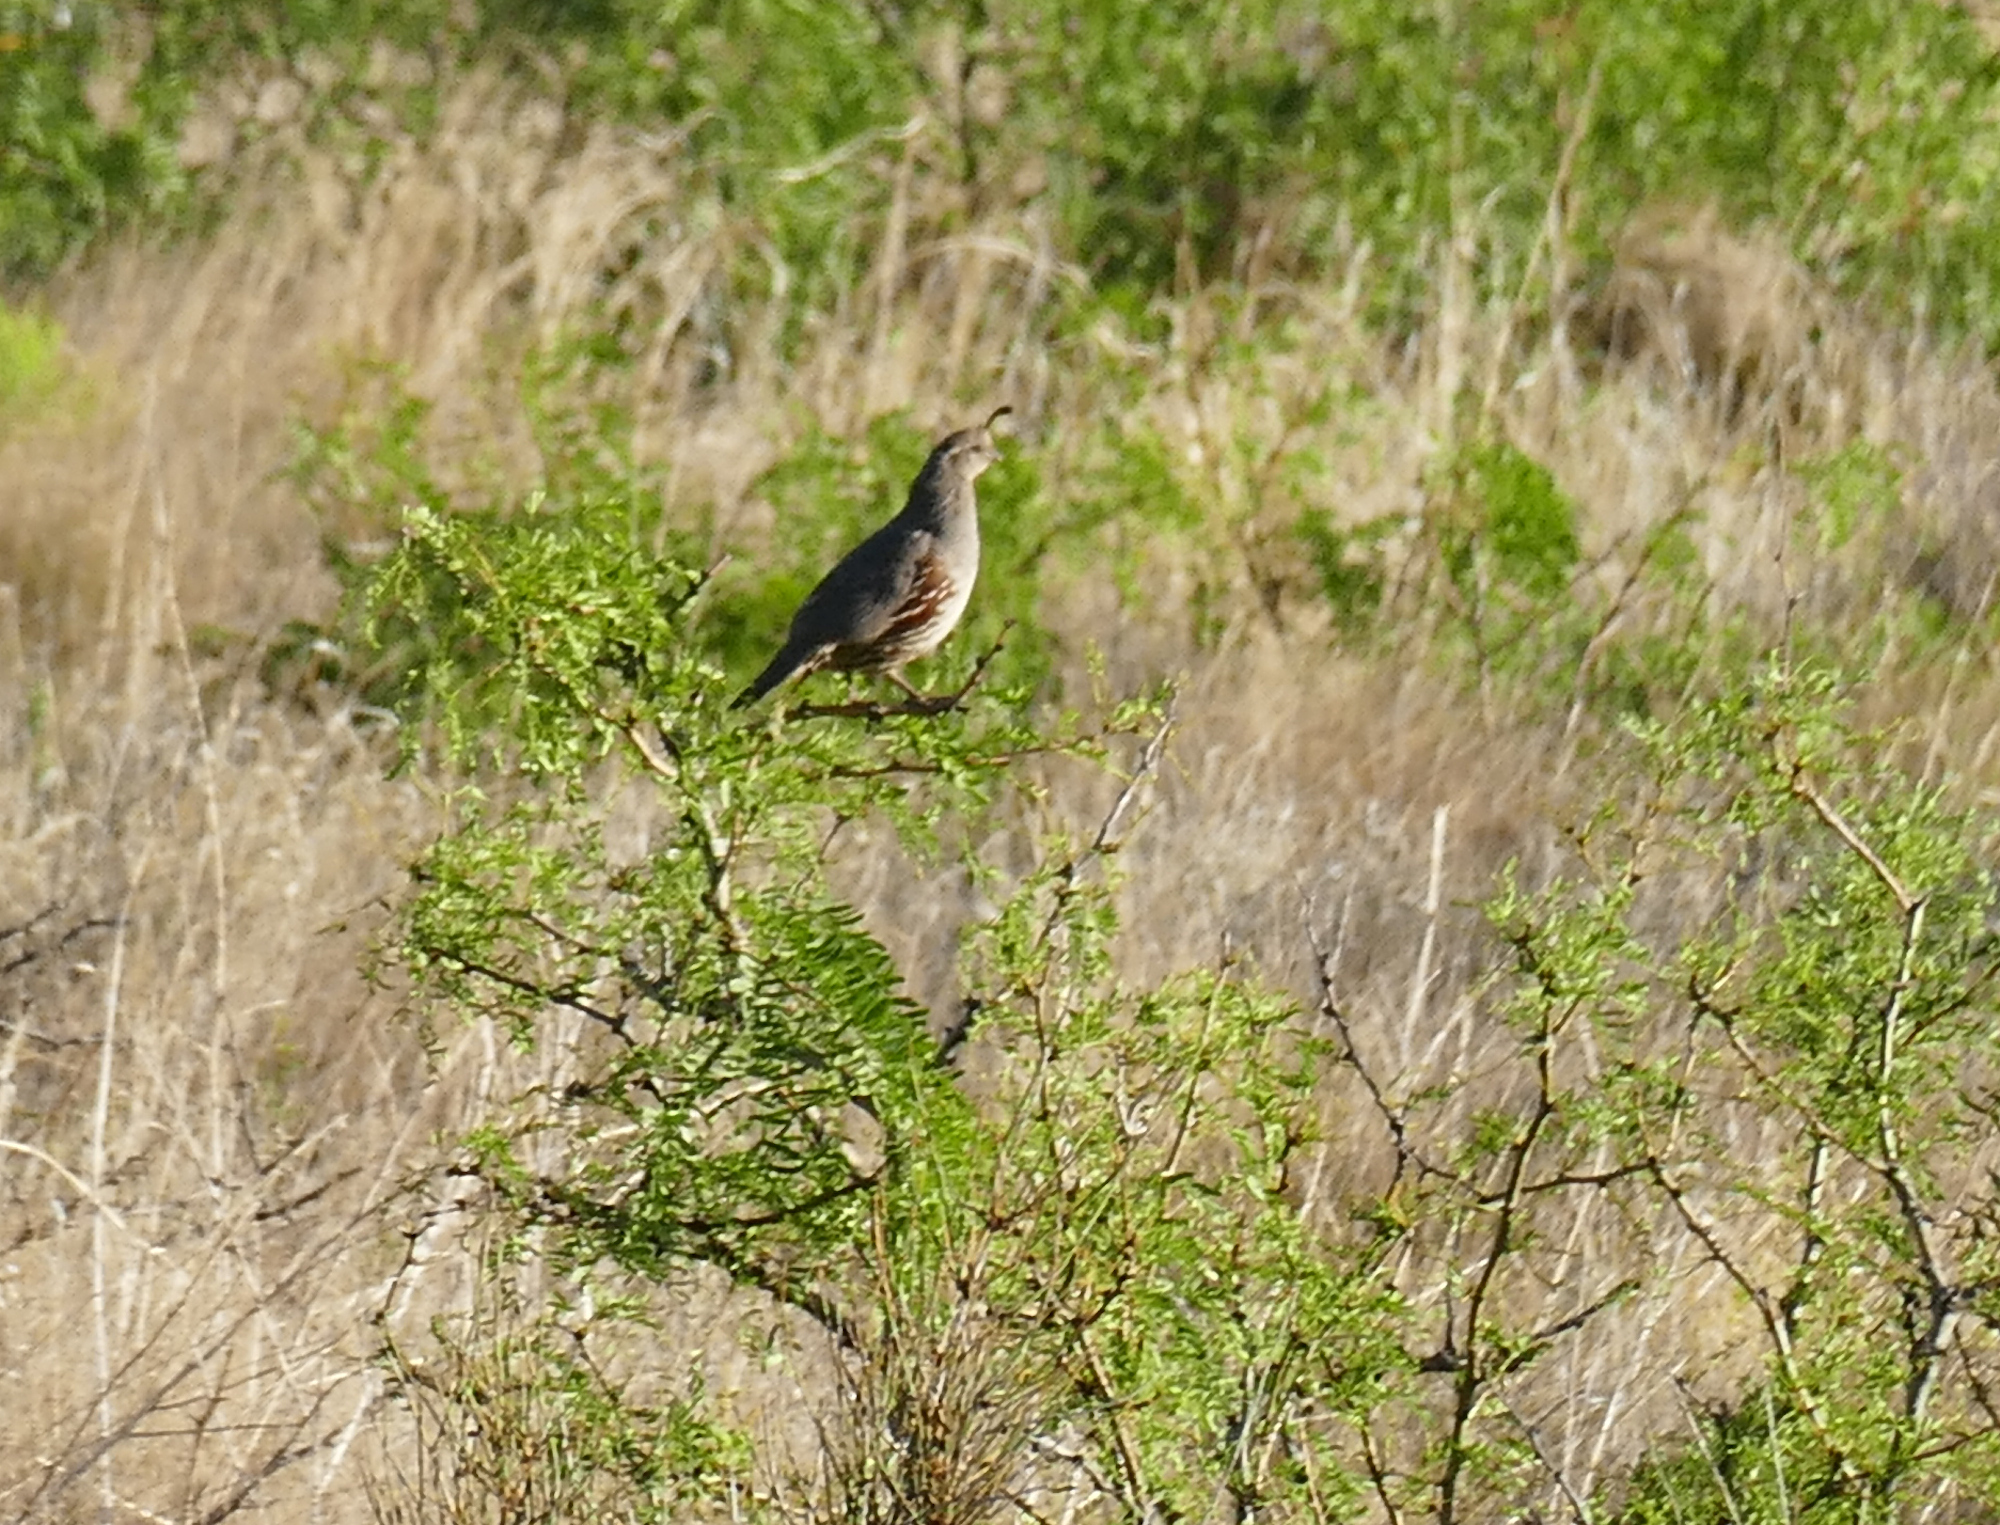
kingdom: Animalia
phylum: Chordata
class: Aves
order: Galliformes
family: Odontophoridae
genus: Callipepla
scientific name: Callipepla gambelii
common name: Gambel's quail
